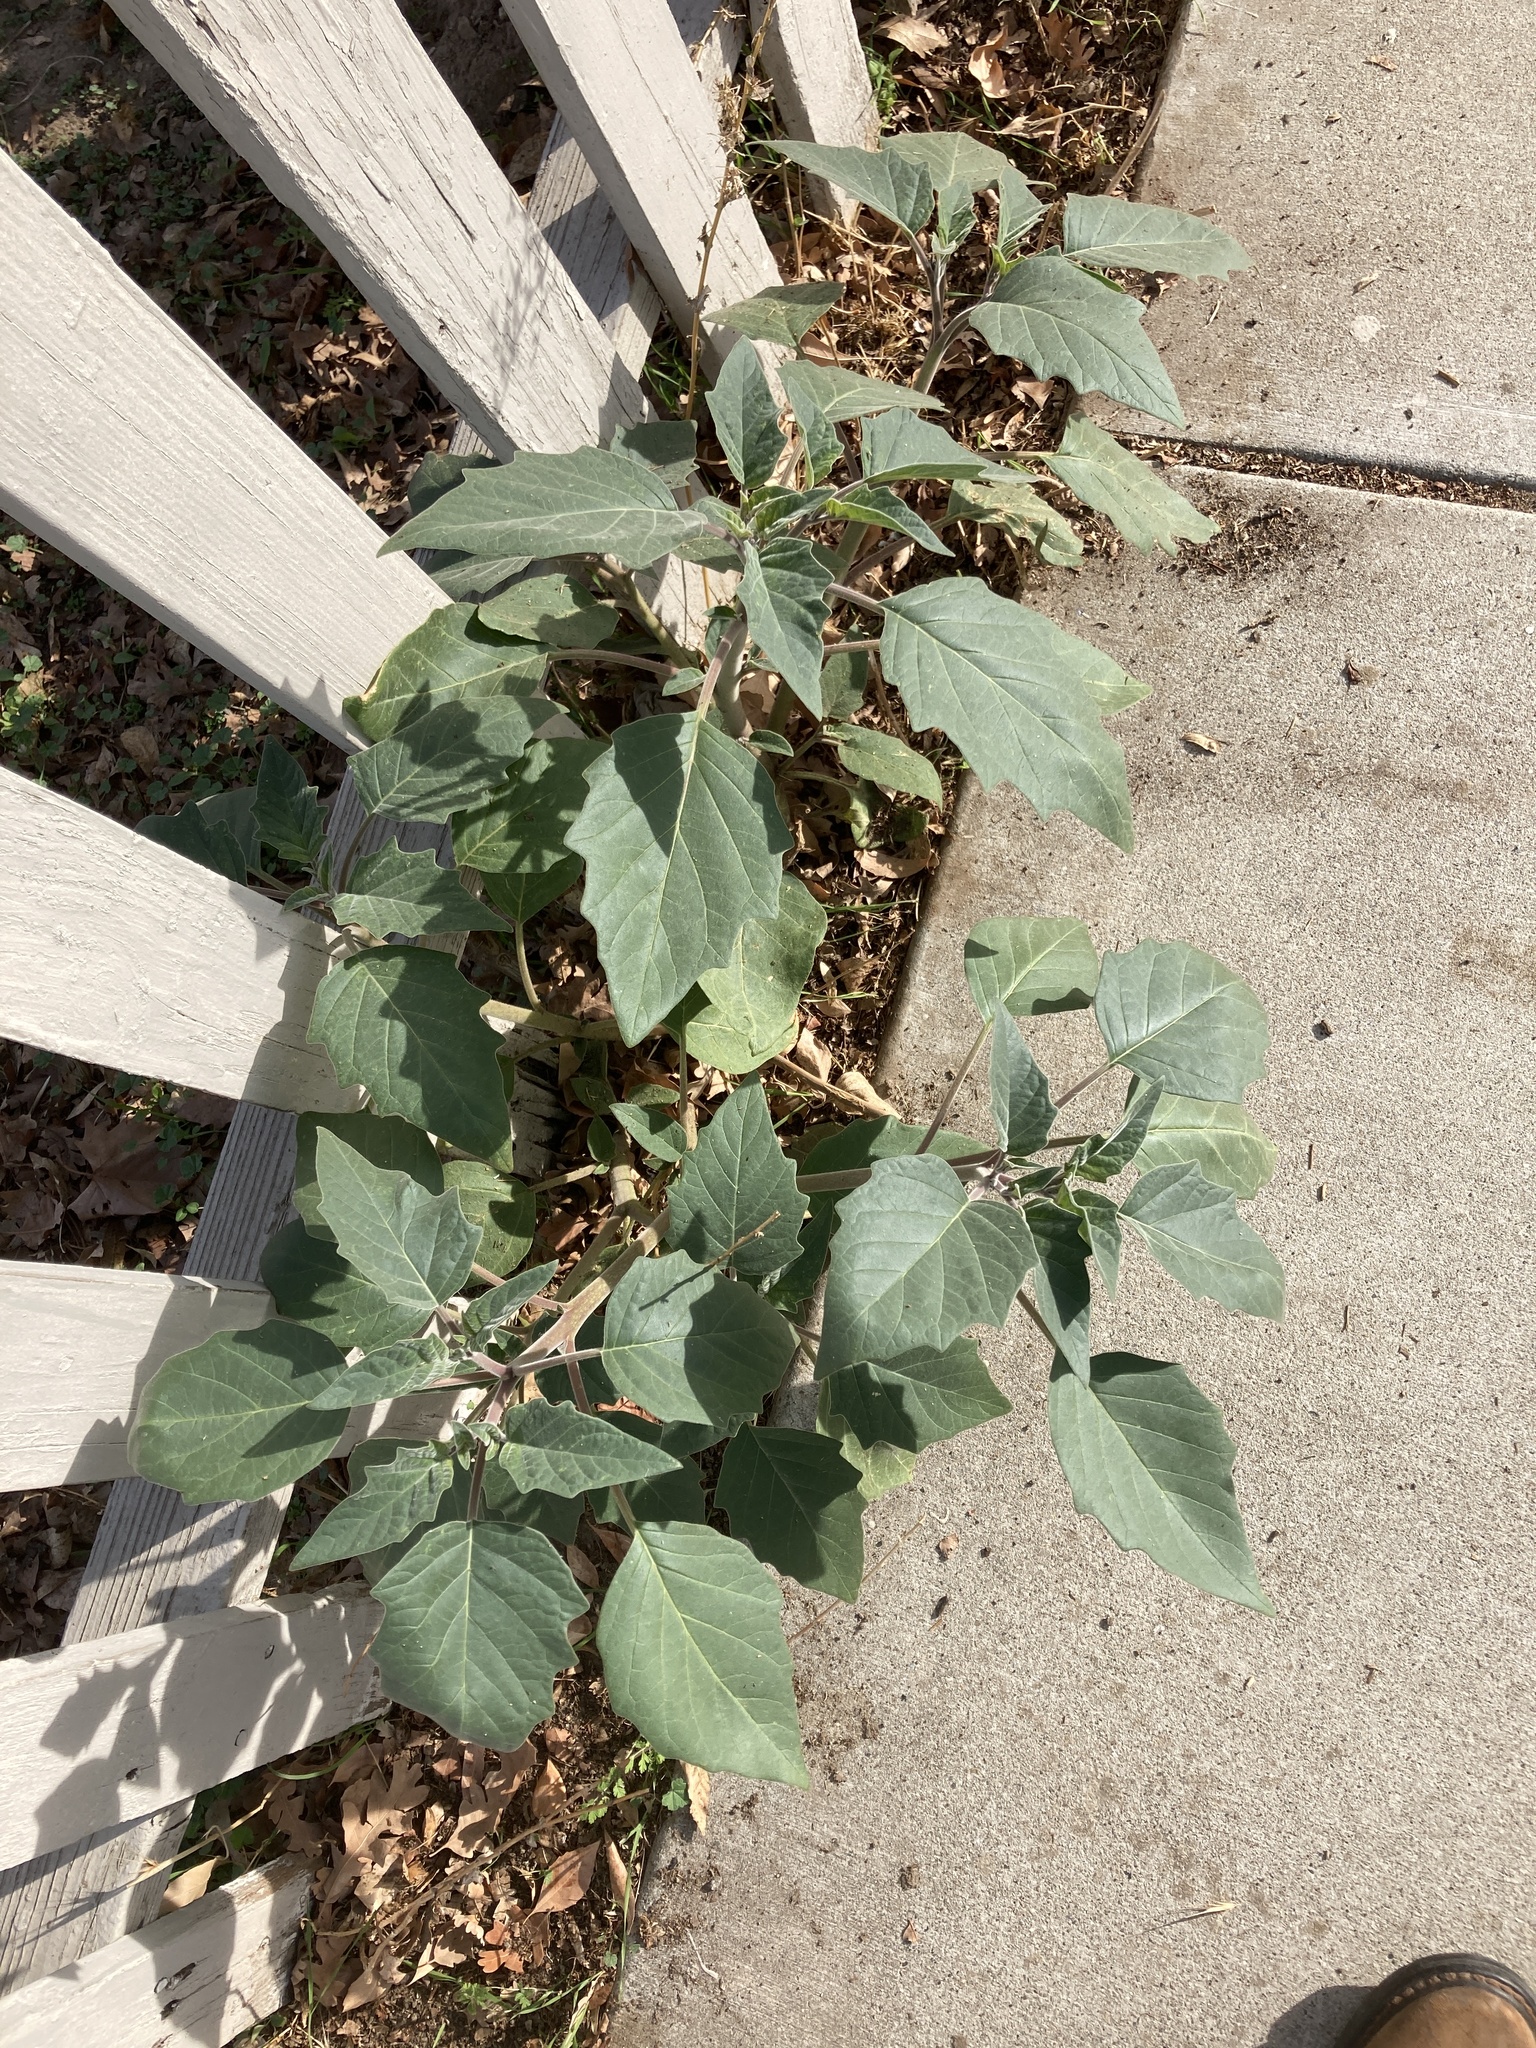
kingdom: Plantae
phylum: Tracheophyta
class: Magnoliopsida
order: Solanales
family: Solanaceae
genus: Datura
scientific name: Datura wrightii
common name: Sacred thorn-apple
